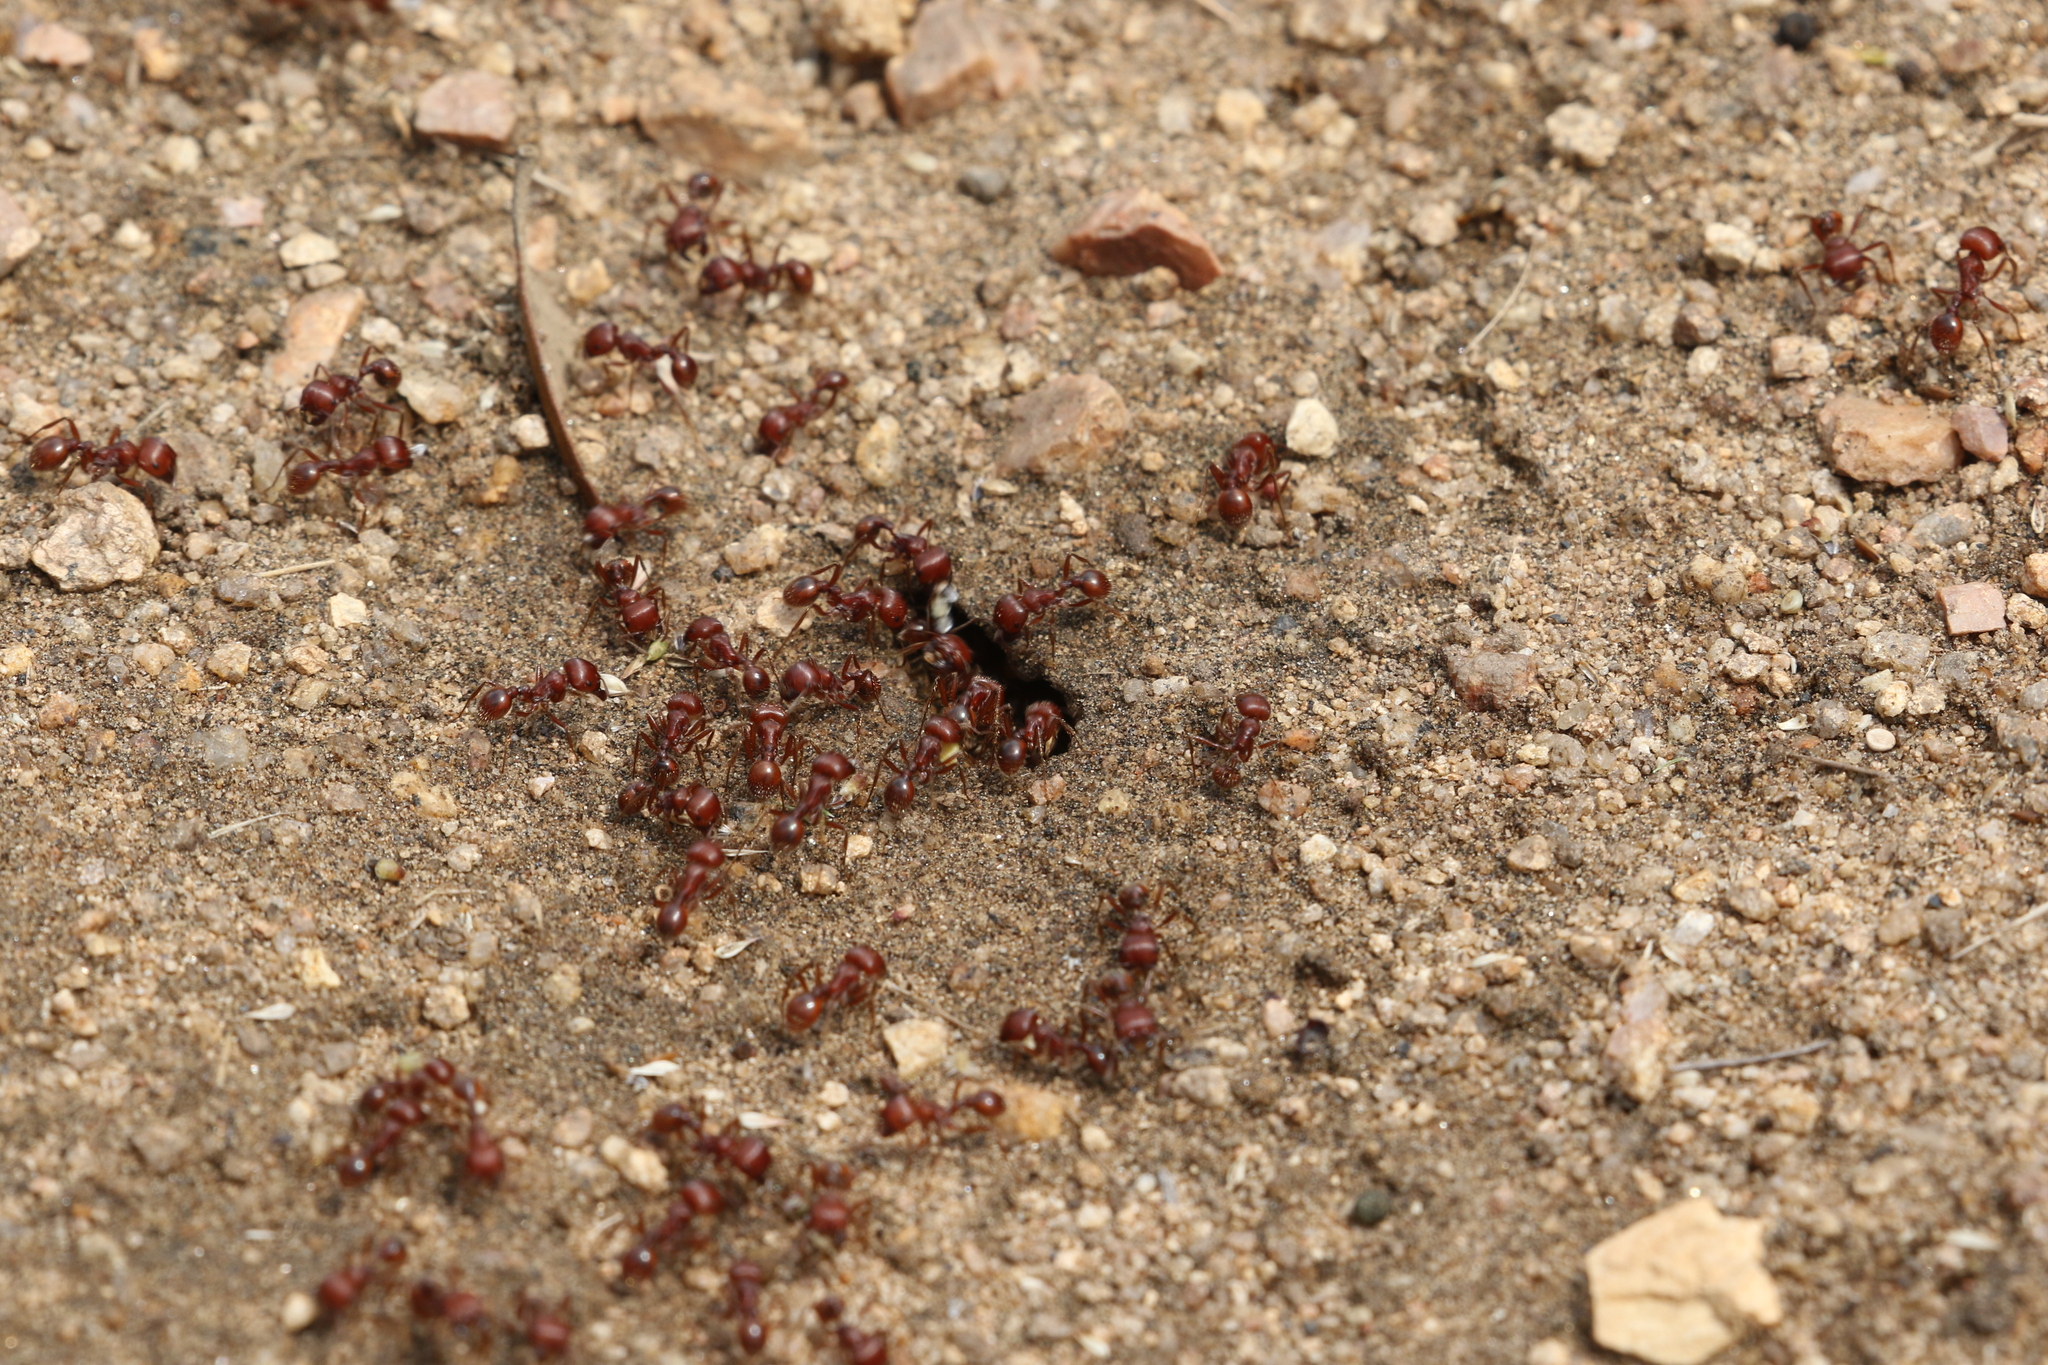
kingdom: Animalia
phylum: Arthropoda
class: Insecta
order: Hymenoptera
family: Formicidae
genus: Pogonomyrmex
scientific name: Pogonomyrmex barbatus
